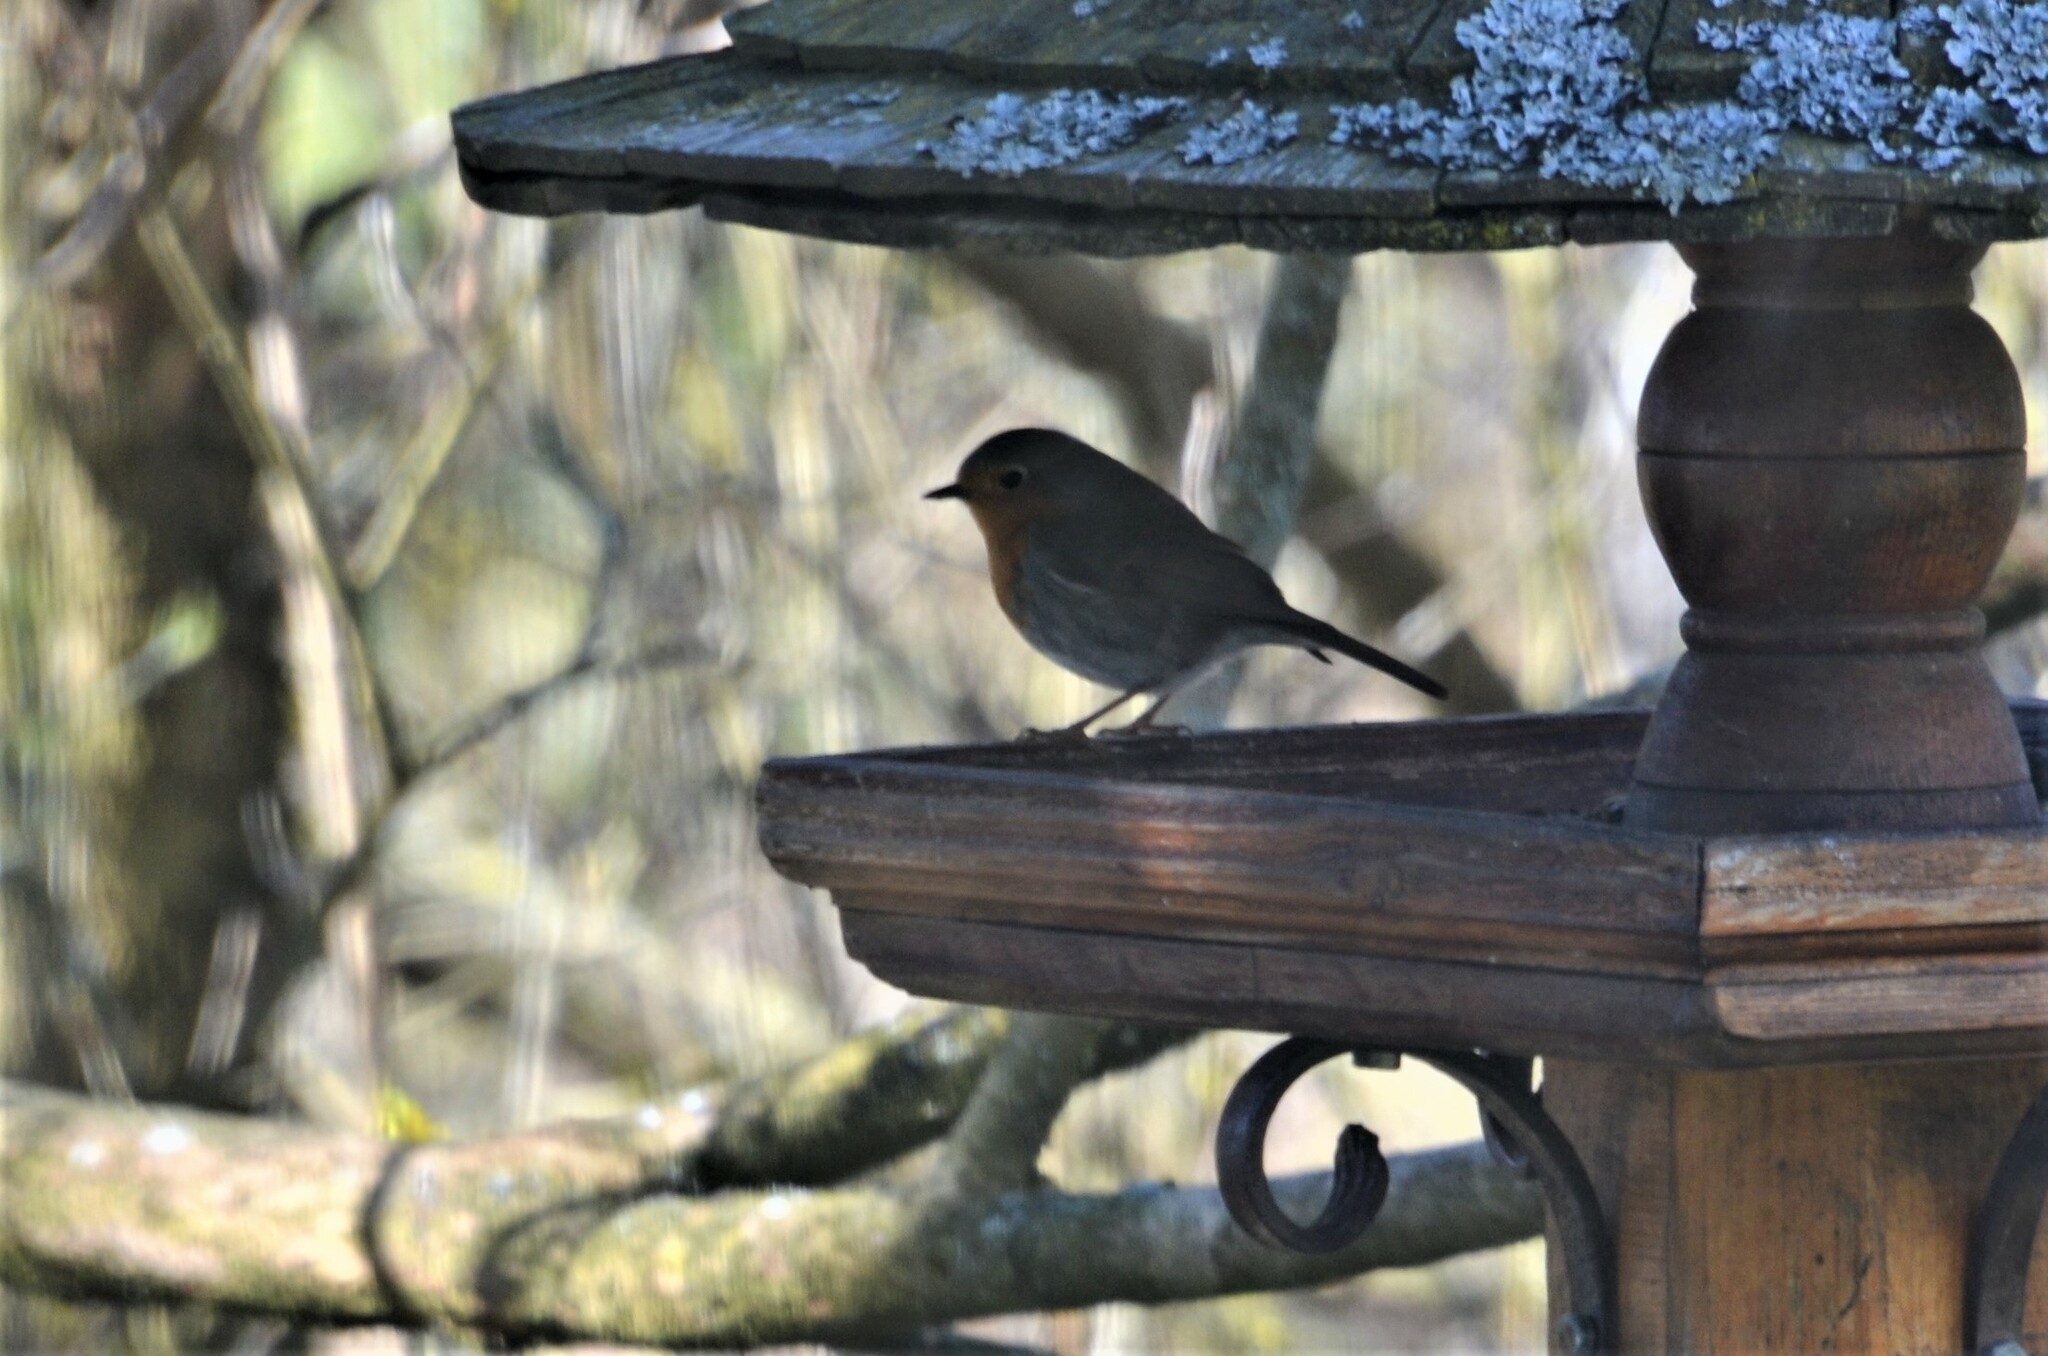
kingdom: Animalia
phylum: Chordata
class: Aves
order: Passeriformes
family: Muscicapidae
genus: Erithacus
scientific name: Erithacus rubecula
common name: European robin
